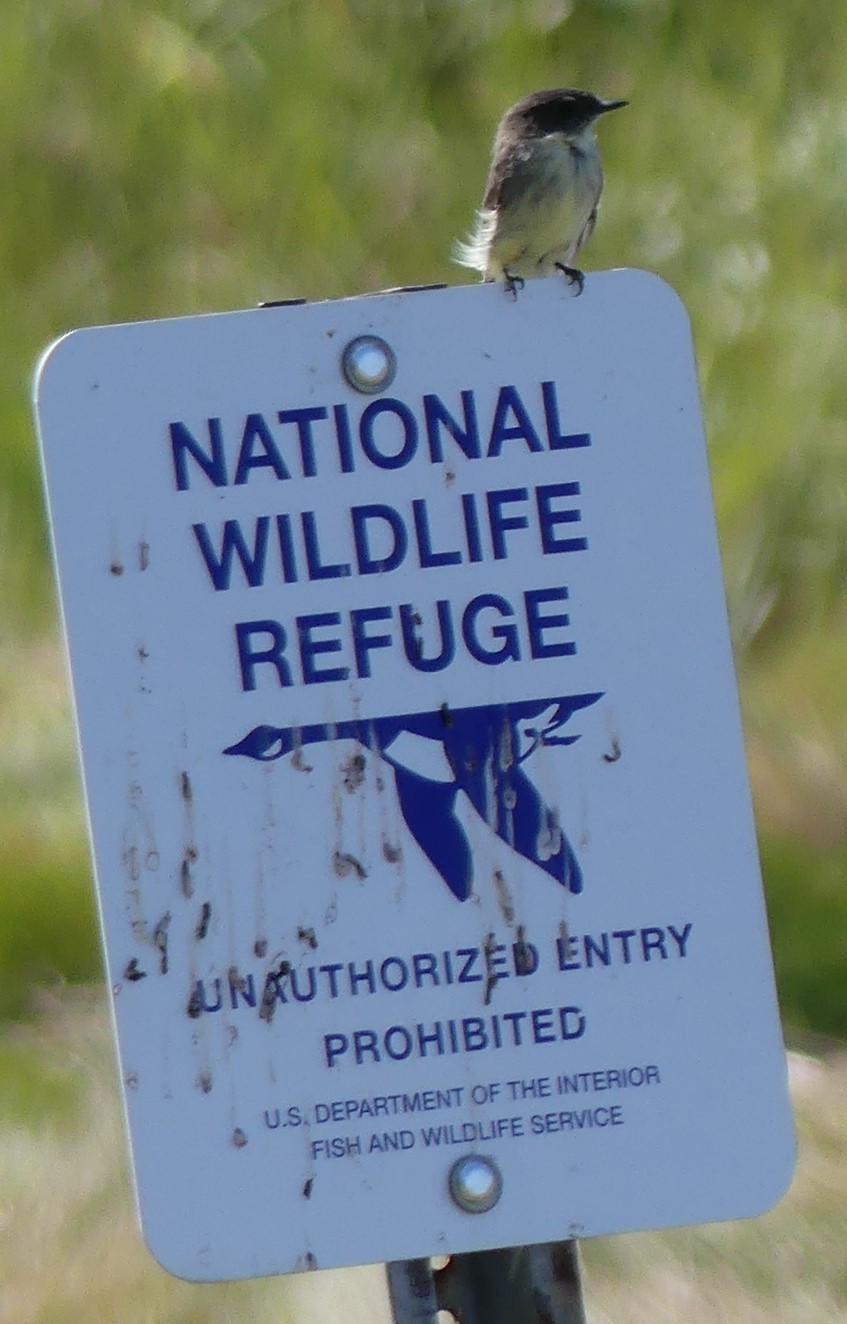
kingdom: Animalia
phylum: Chordata
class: Aves
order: Passeriformes
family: Tyrannidae
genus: Sayornis
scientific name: Sayornis phoebe
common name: Eastern phoebe
